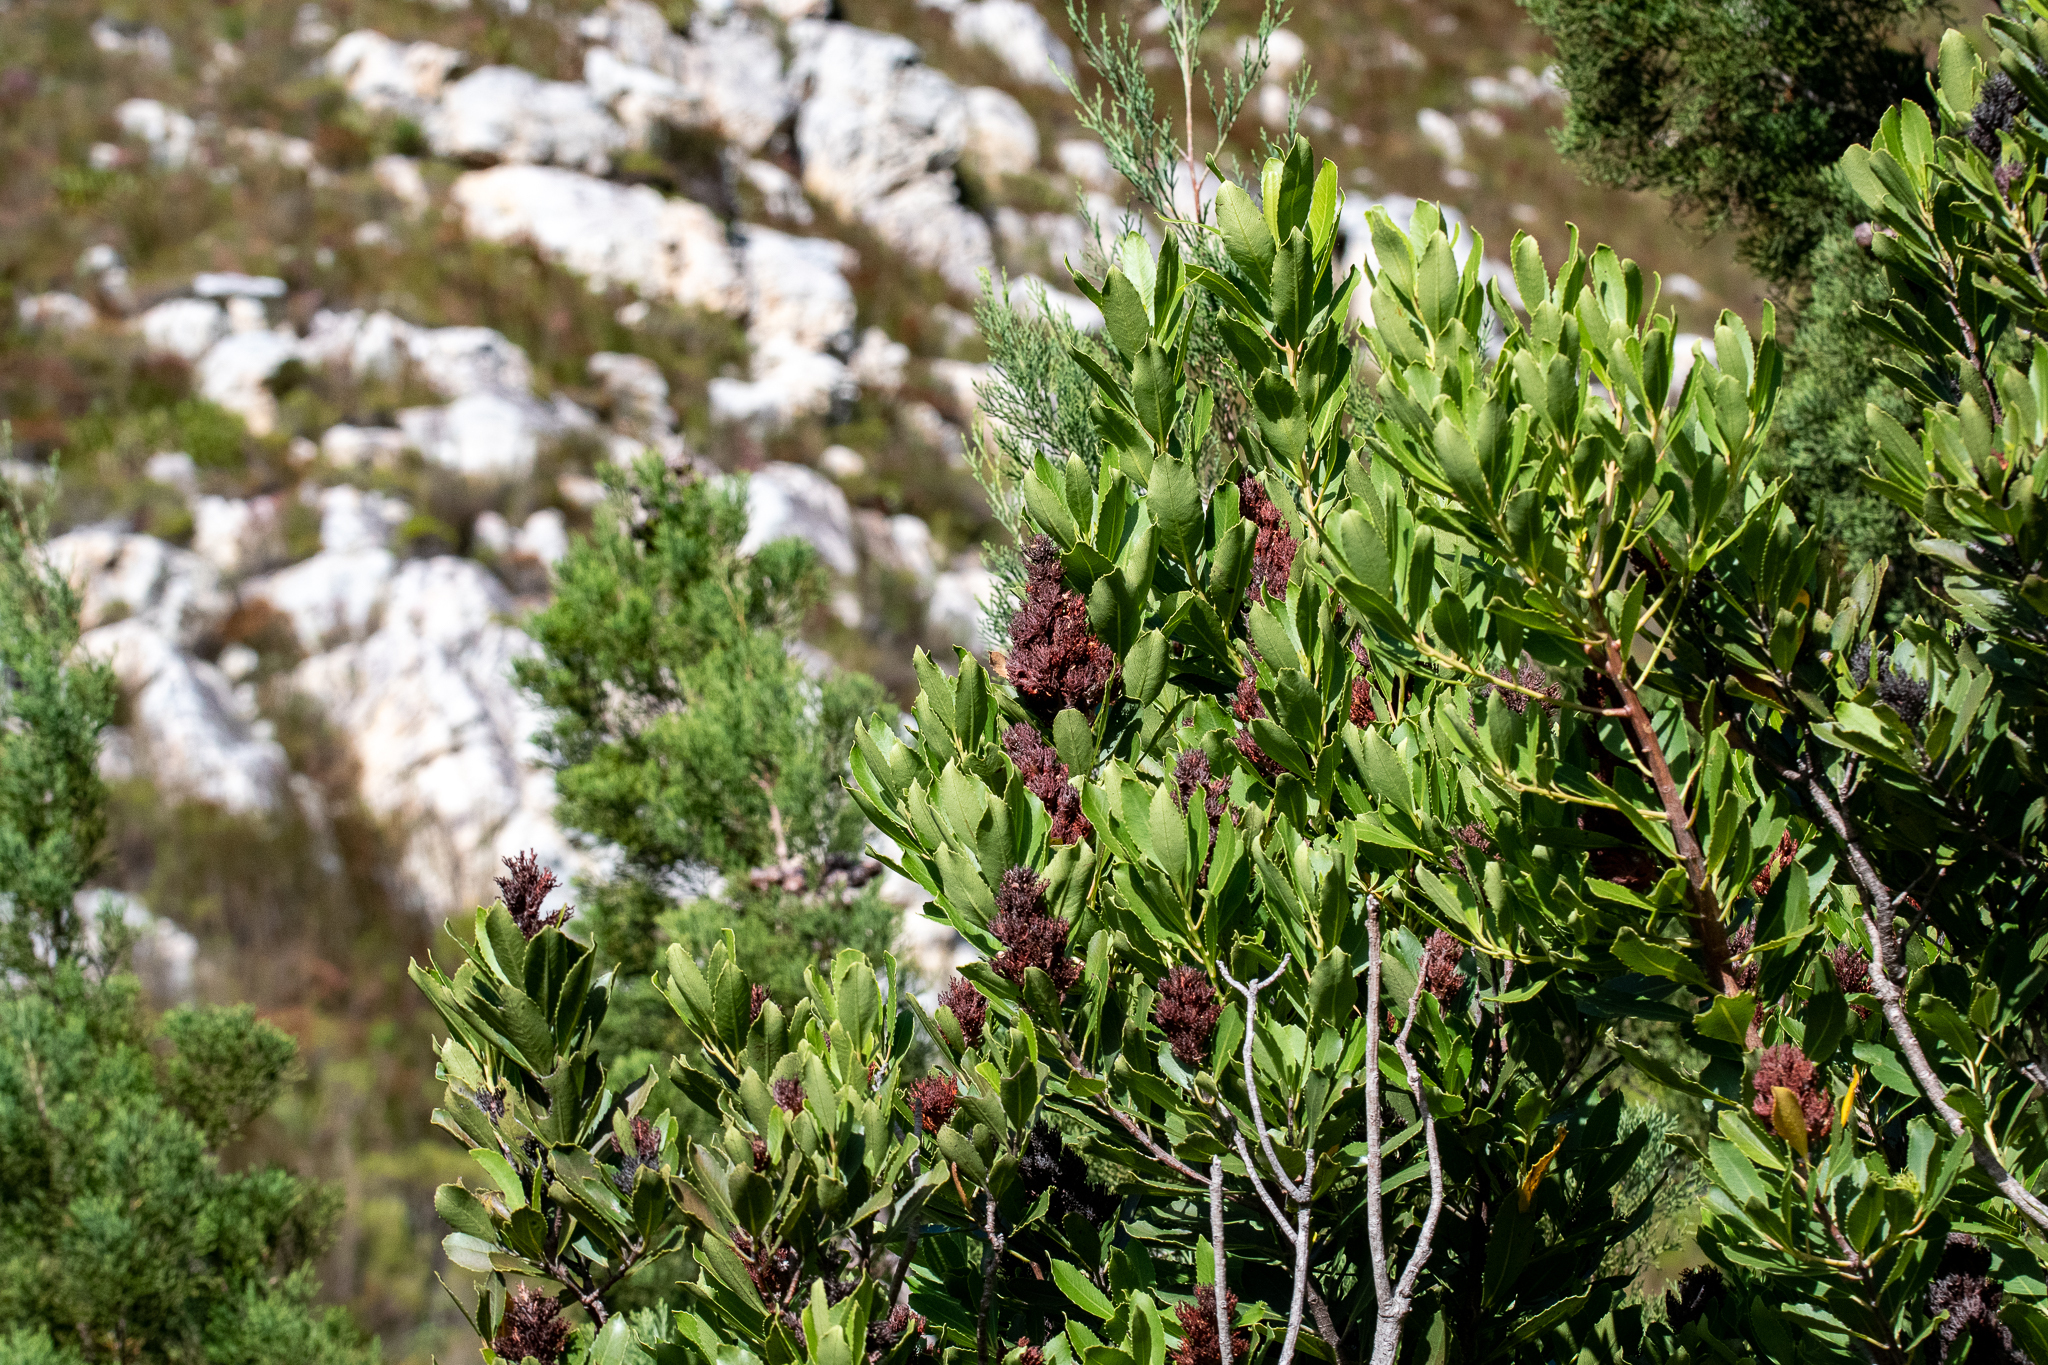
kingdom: Plantae
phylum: Tracheophyta
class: Magnoliopsida
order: Sapindales
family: Anacardiaceae
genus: Laurophyllus
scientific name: Laurophyllus capensis
